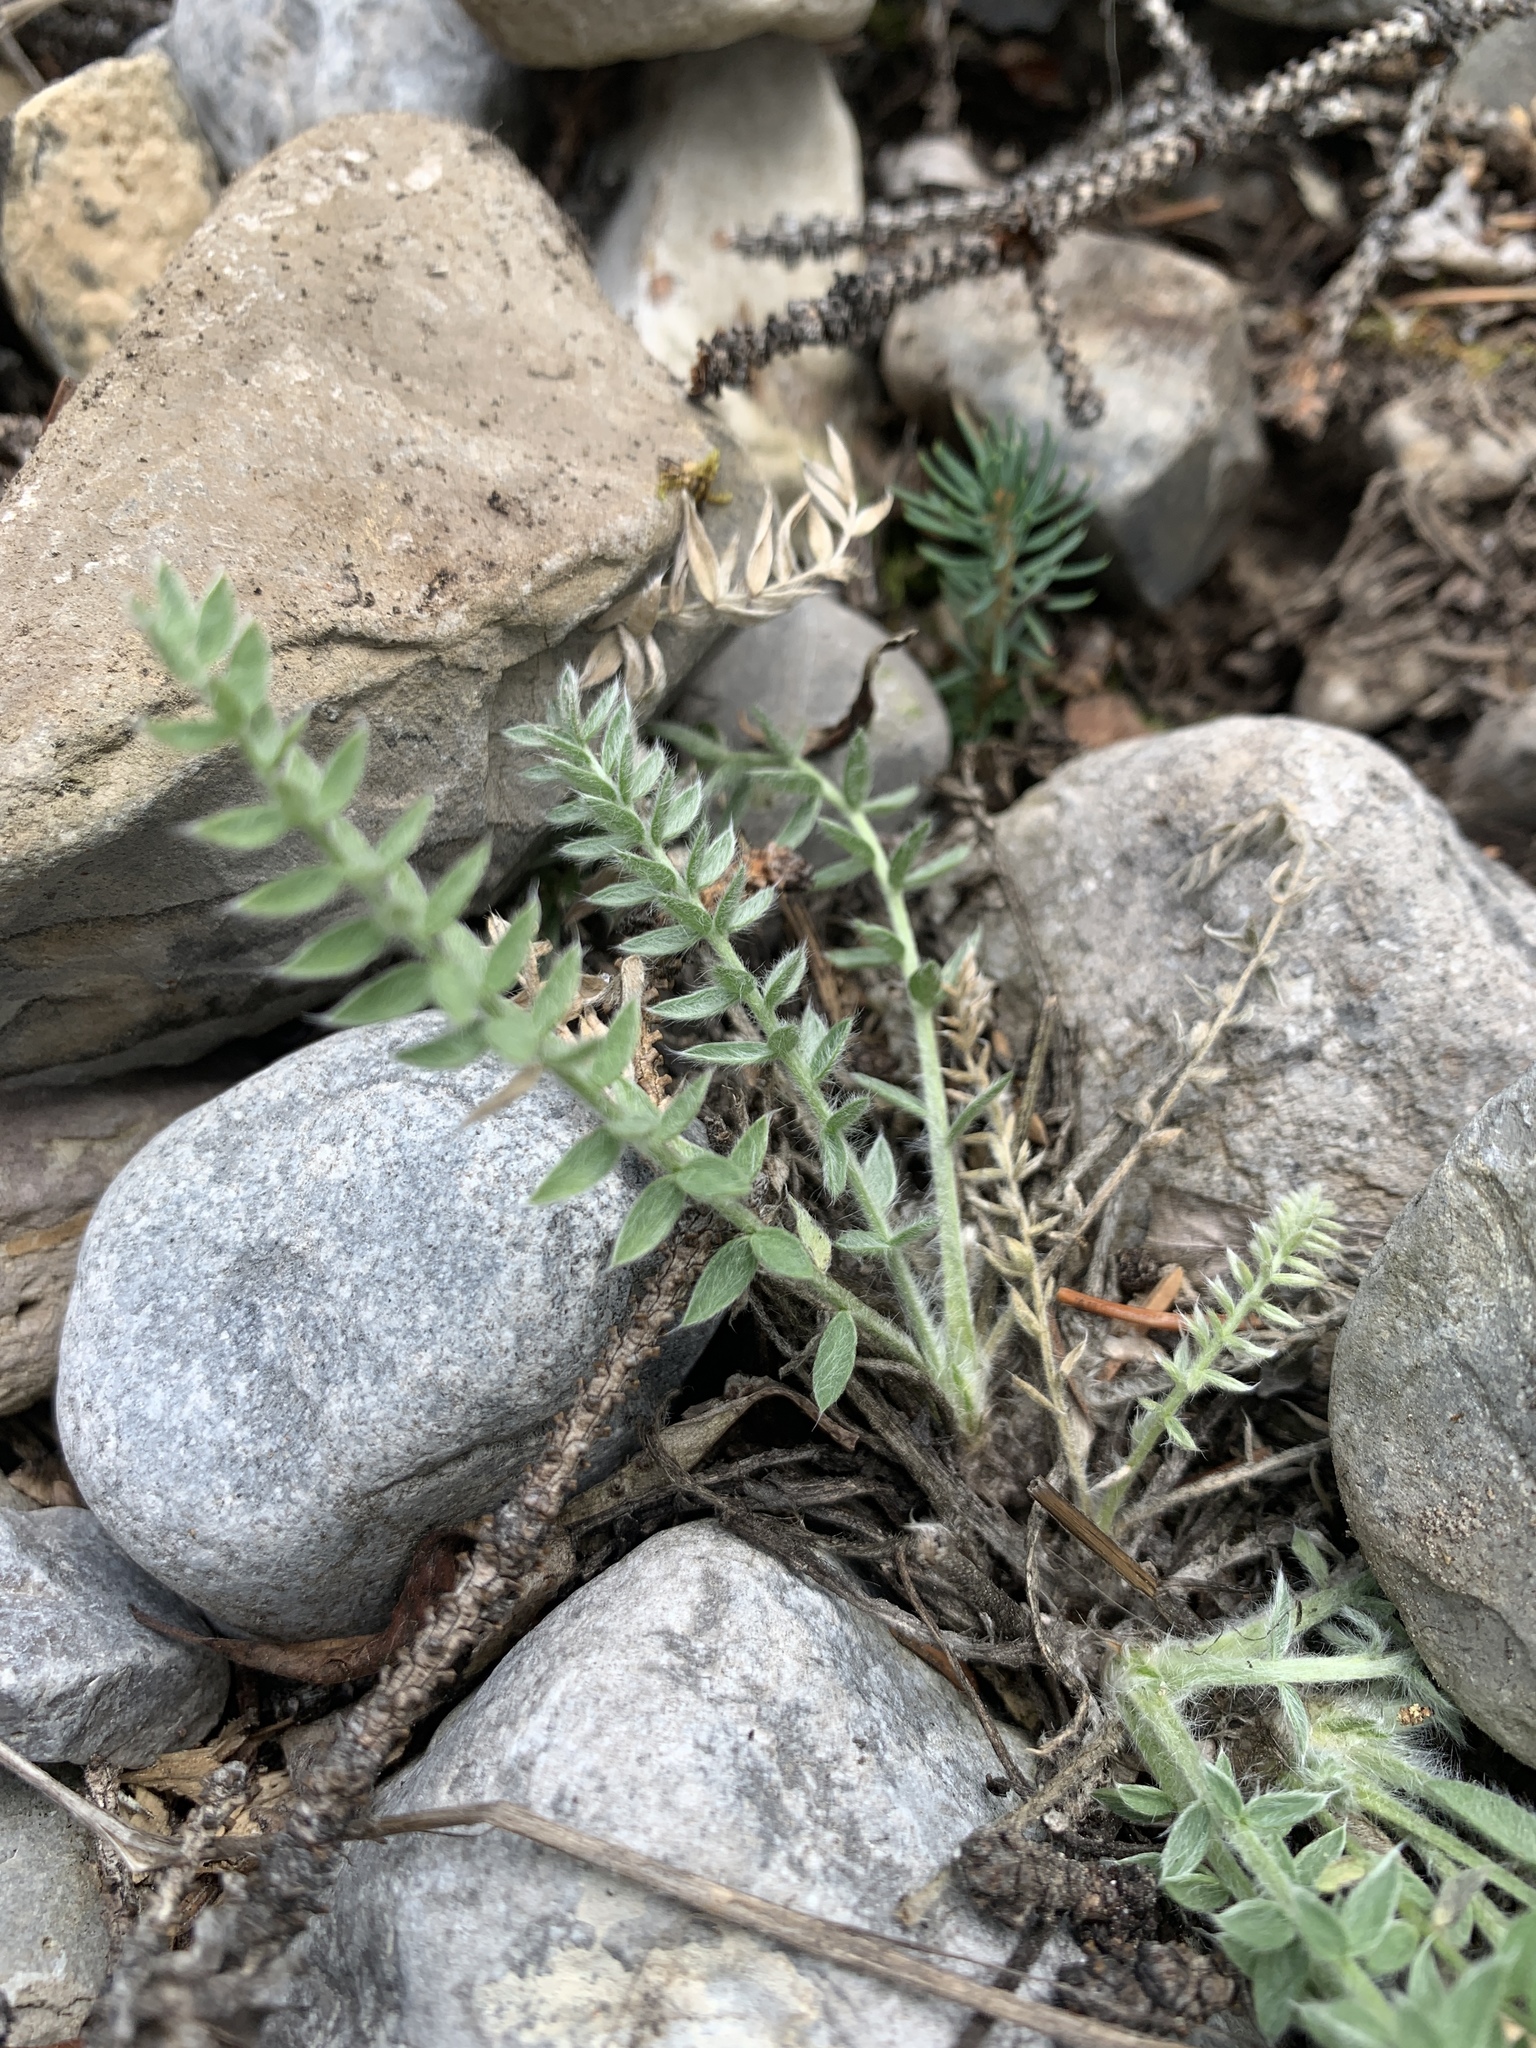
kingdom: Plantae
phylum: Tracheophyta
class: Magnoliopsida
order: Fabales
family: Fabaceae
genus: Oxytropis
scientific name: Oxytropis splendens
